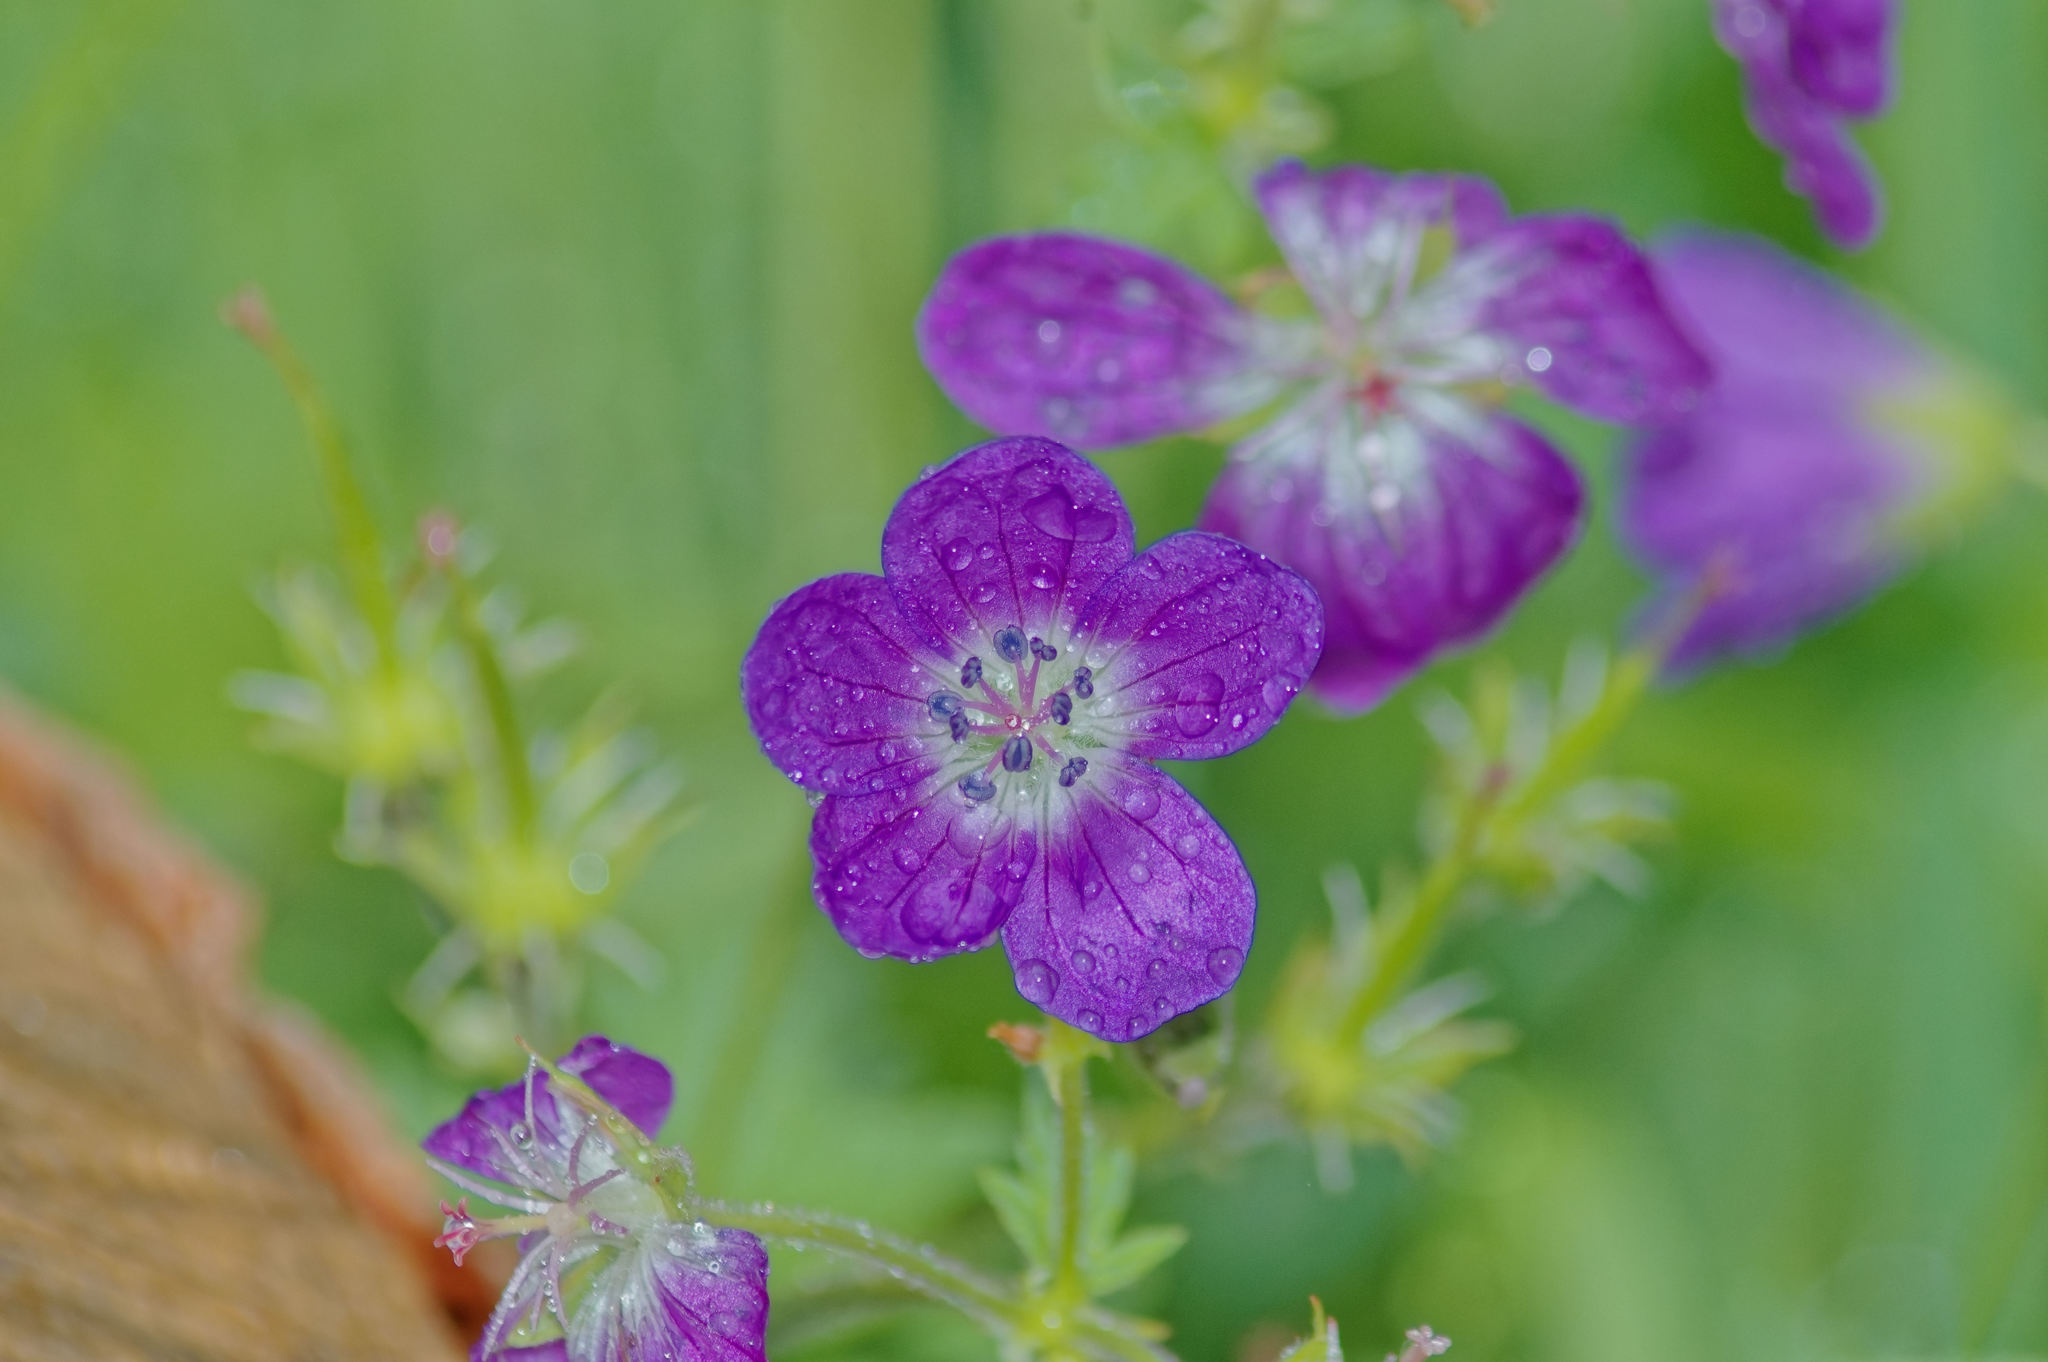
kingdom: Plantae
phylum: Tracheophyta
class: Magnoliopsida
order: Geraniales
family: Geraniaceae
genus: Geranium
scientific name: Geranium sylvaticum
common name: Wood crane's-bill
